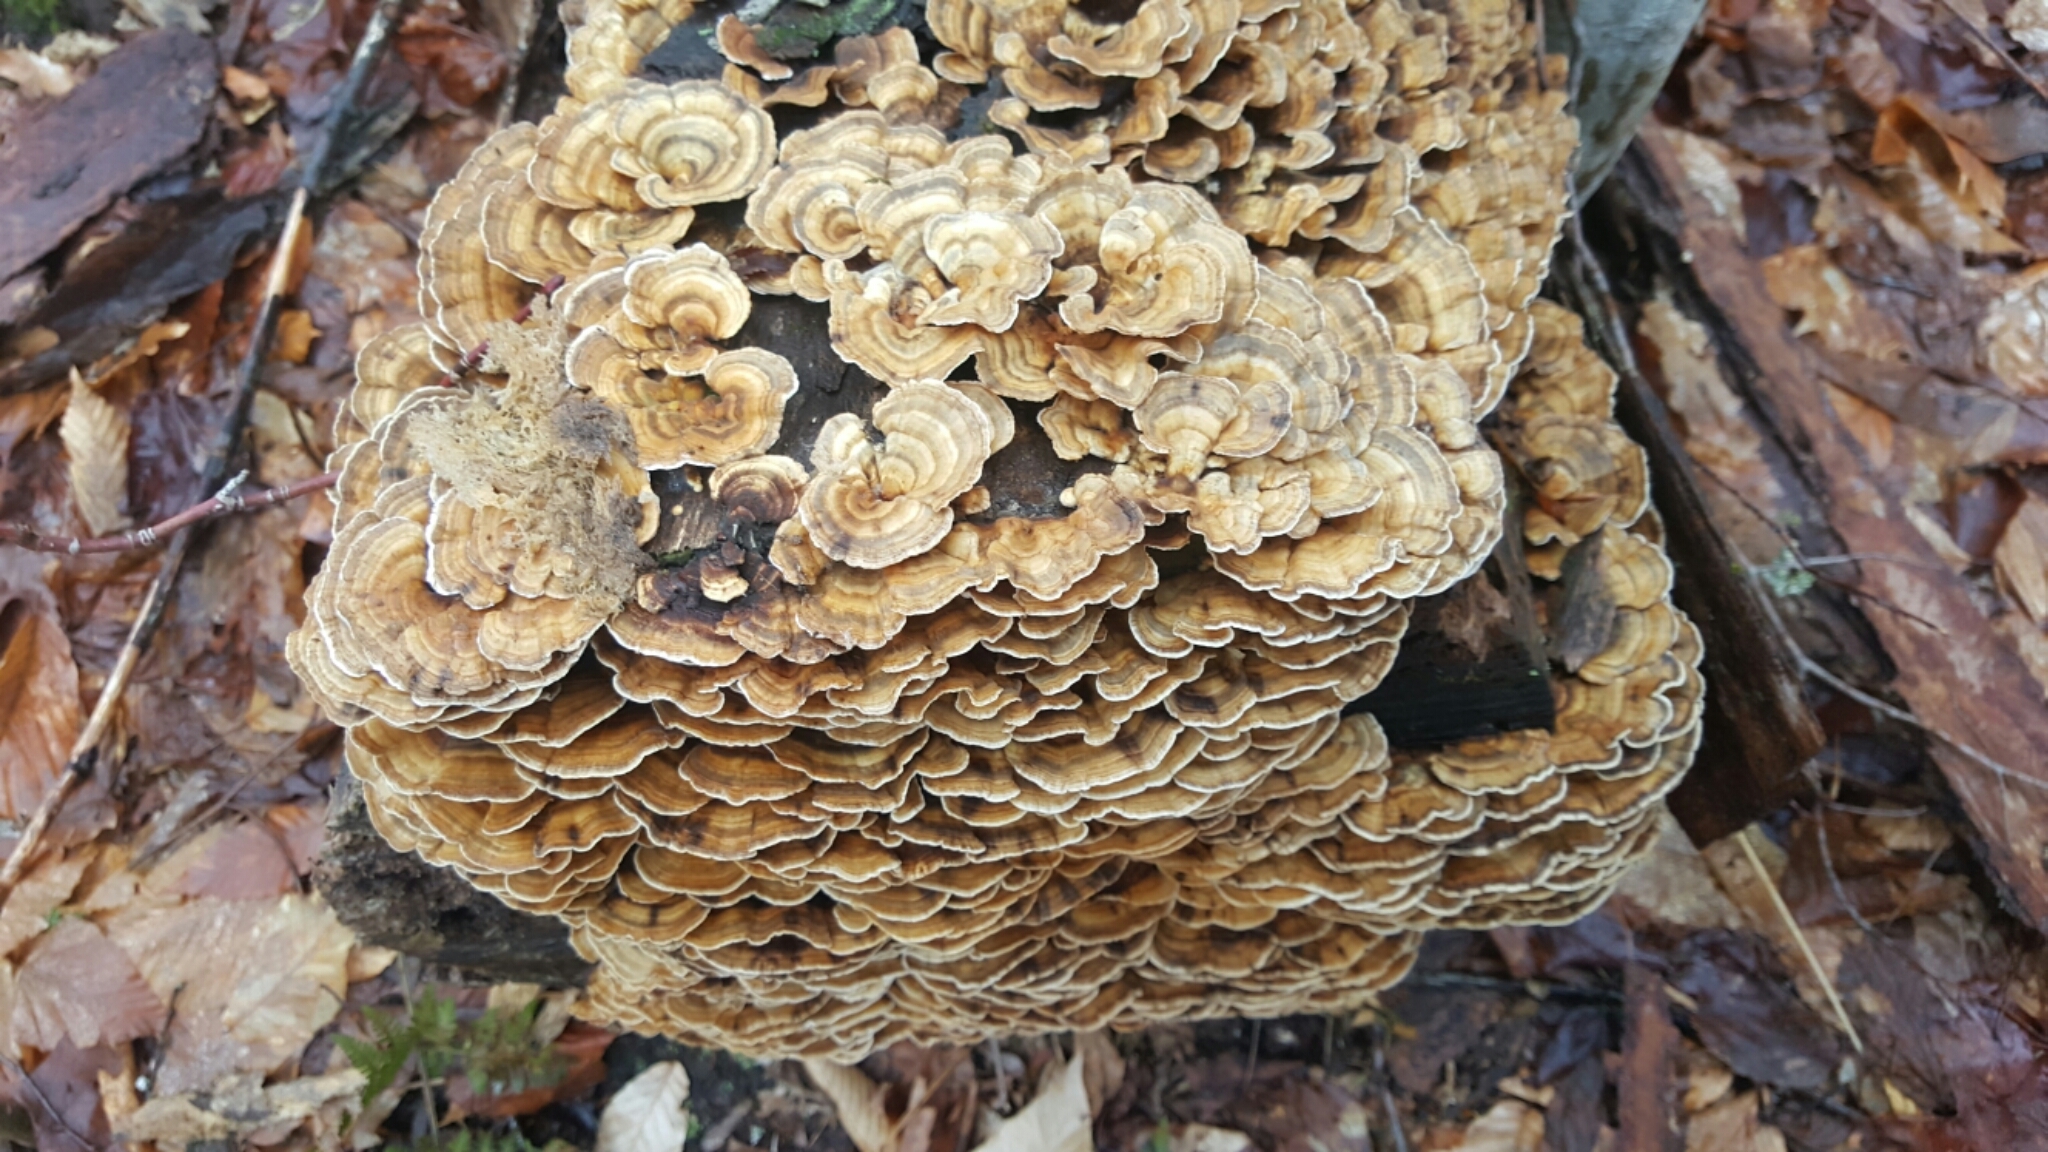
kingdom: Fungi
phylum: Basidiomycota
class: Agaricomycetes
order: Polyporales
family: Polyporaceae
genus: Trametes
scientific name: Trametes versicolor
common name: Turkeytail
